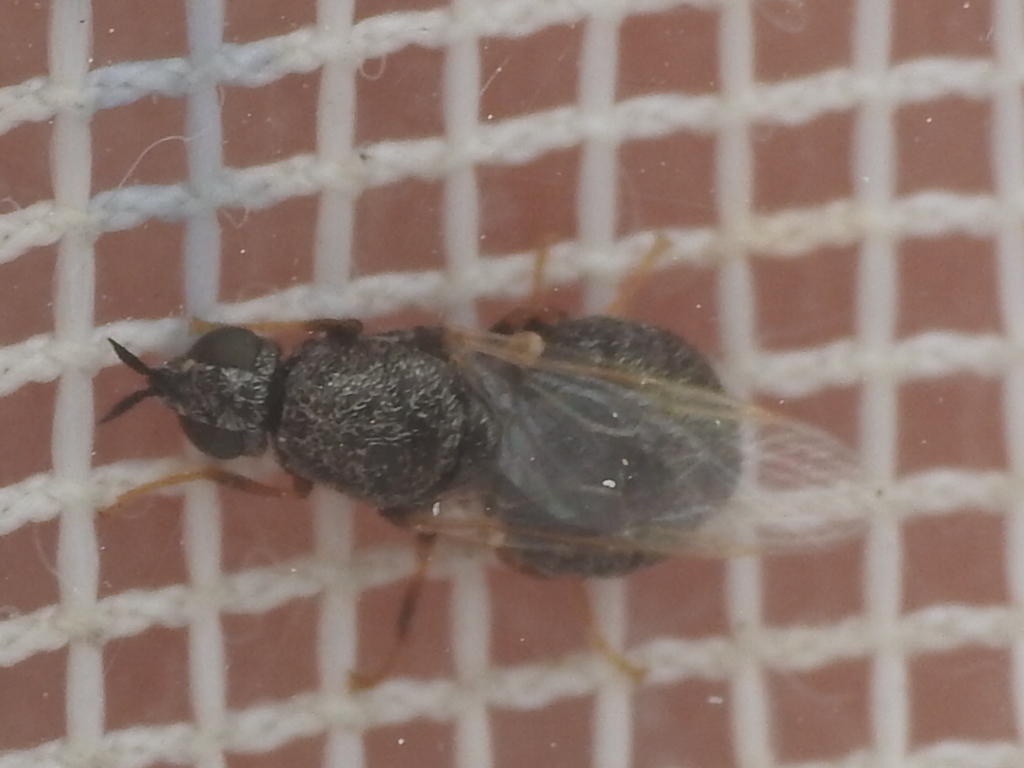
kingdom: Animalia
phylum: Arthropoda
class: Insecta
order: Diptera
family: Stratiomyidae
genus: Nemotelus
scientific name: Nemotelus bruesii
